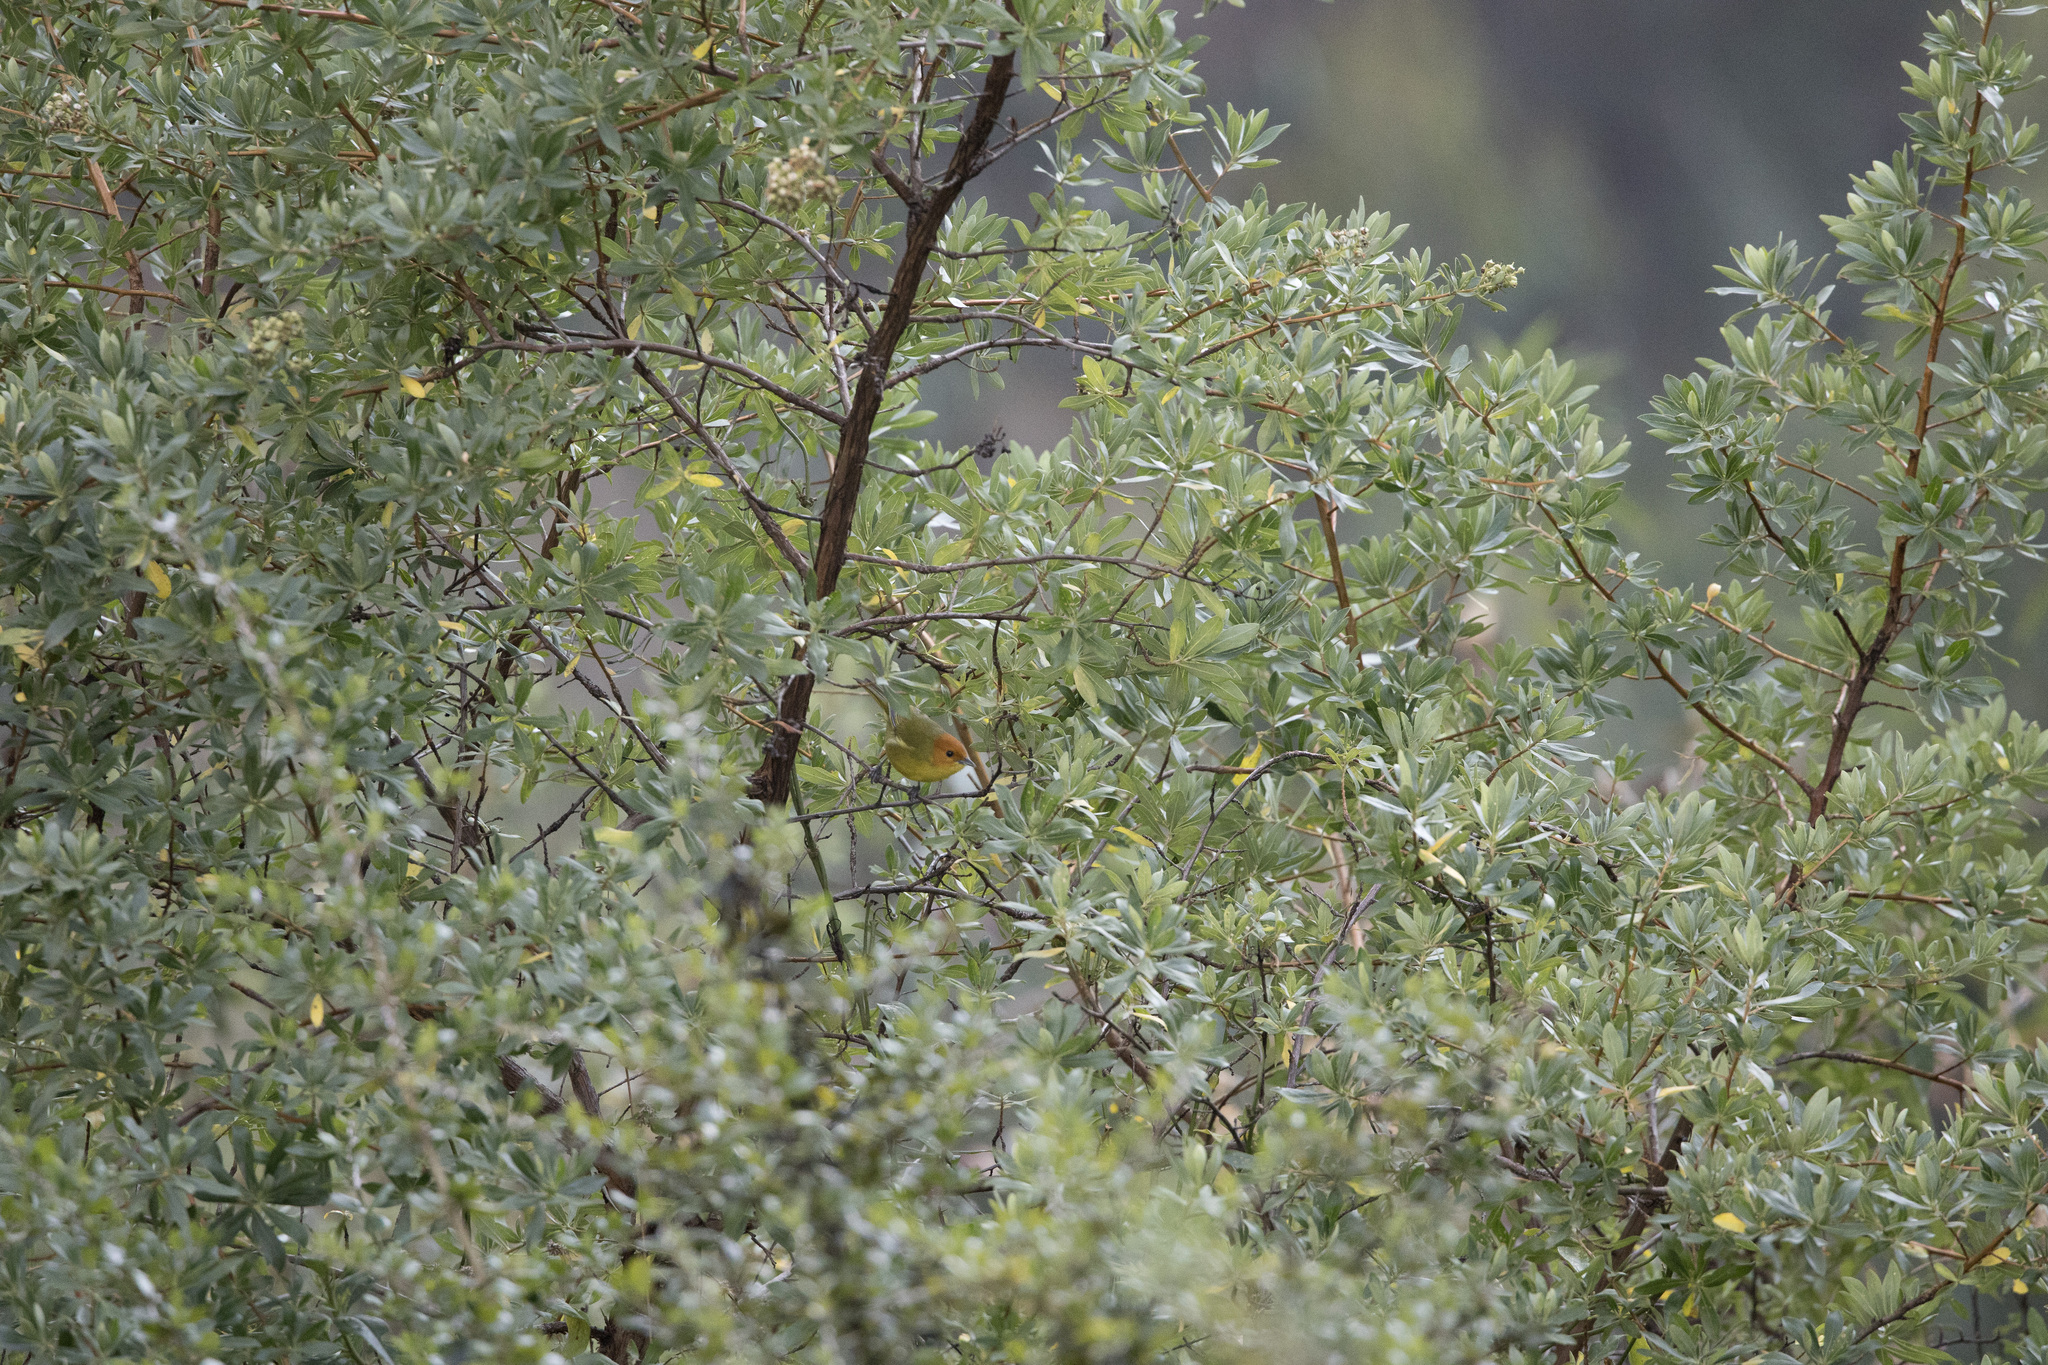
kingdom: Animalia
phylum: Chordata
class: Aves
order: Passeriformes
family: Thraupidae
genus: Thlypopsis
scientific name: Thlypopsis ruficeps
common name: Rust-and-yellow tanager
